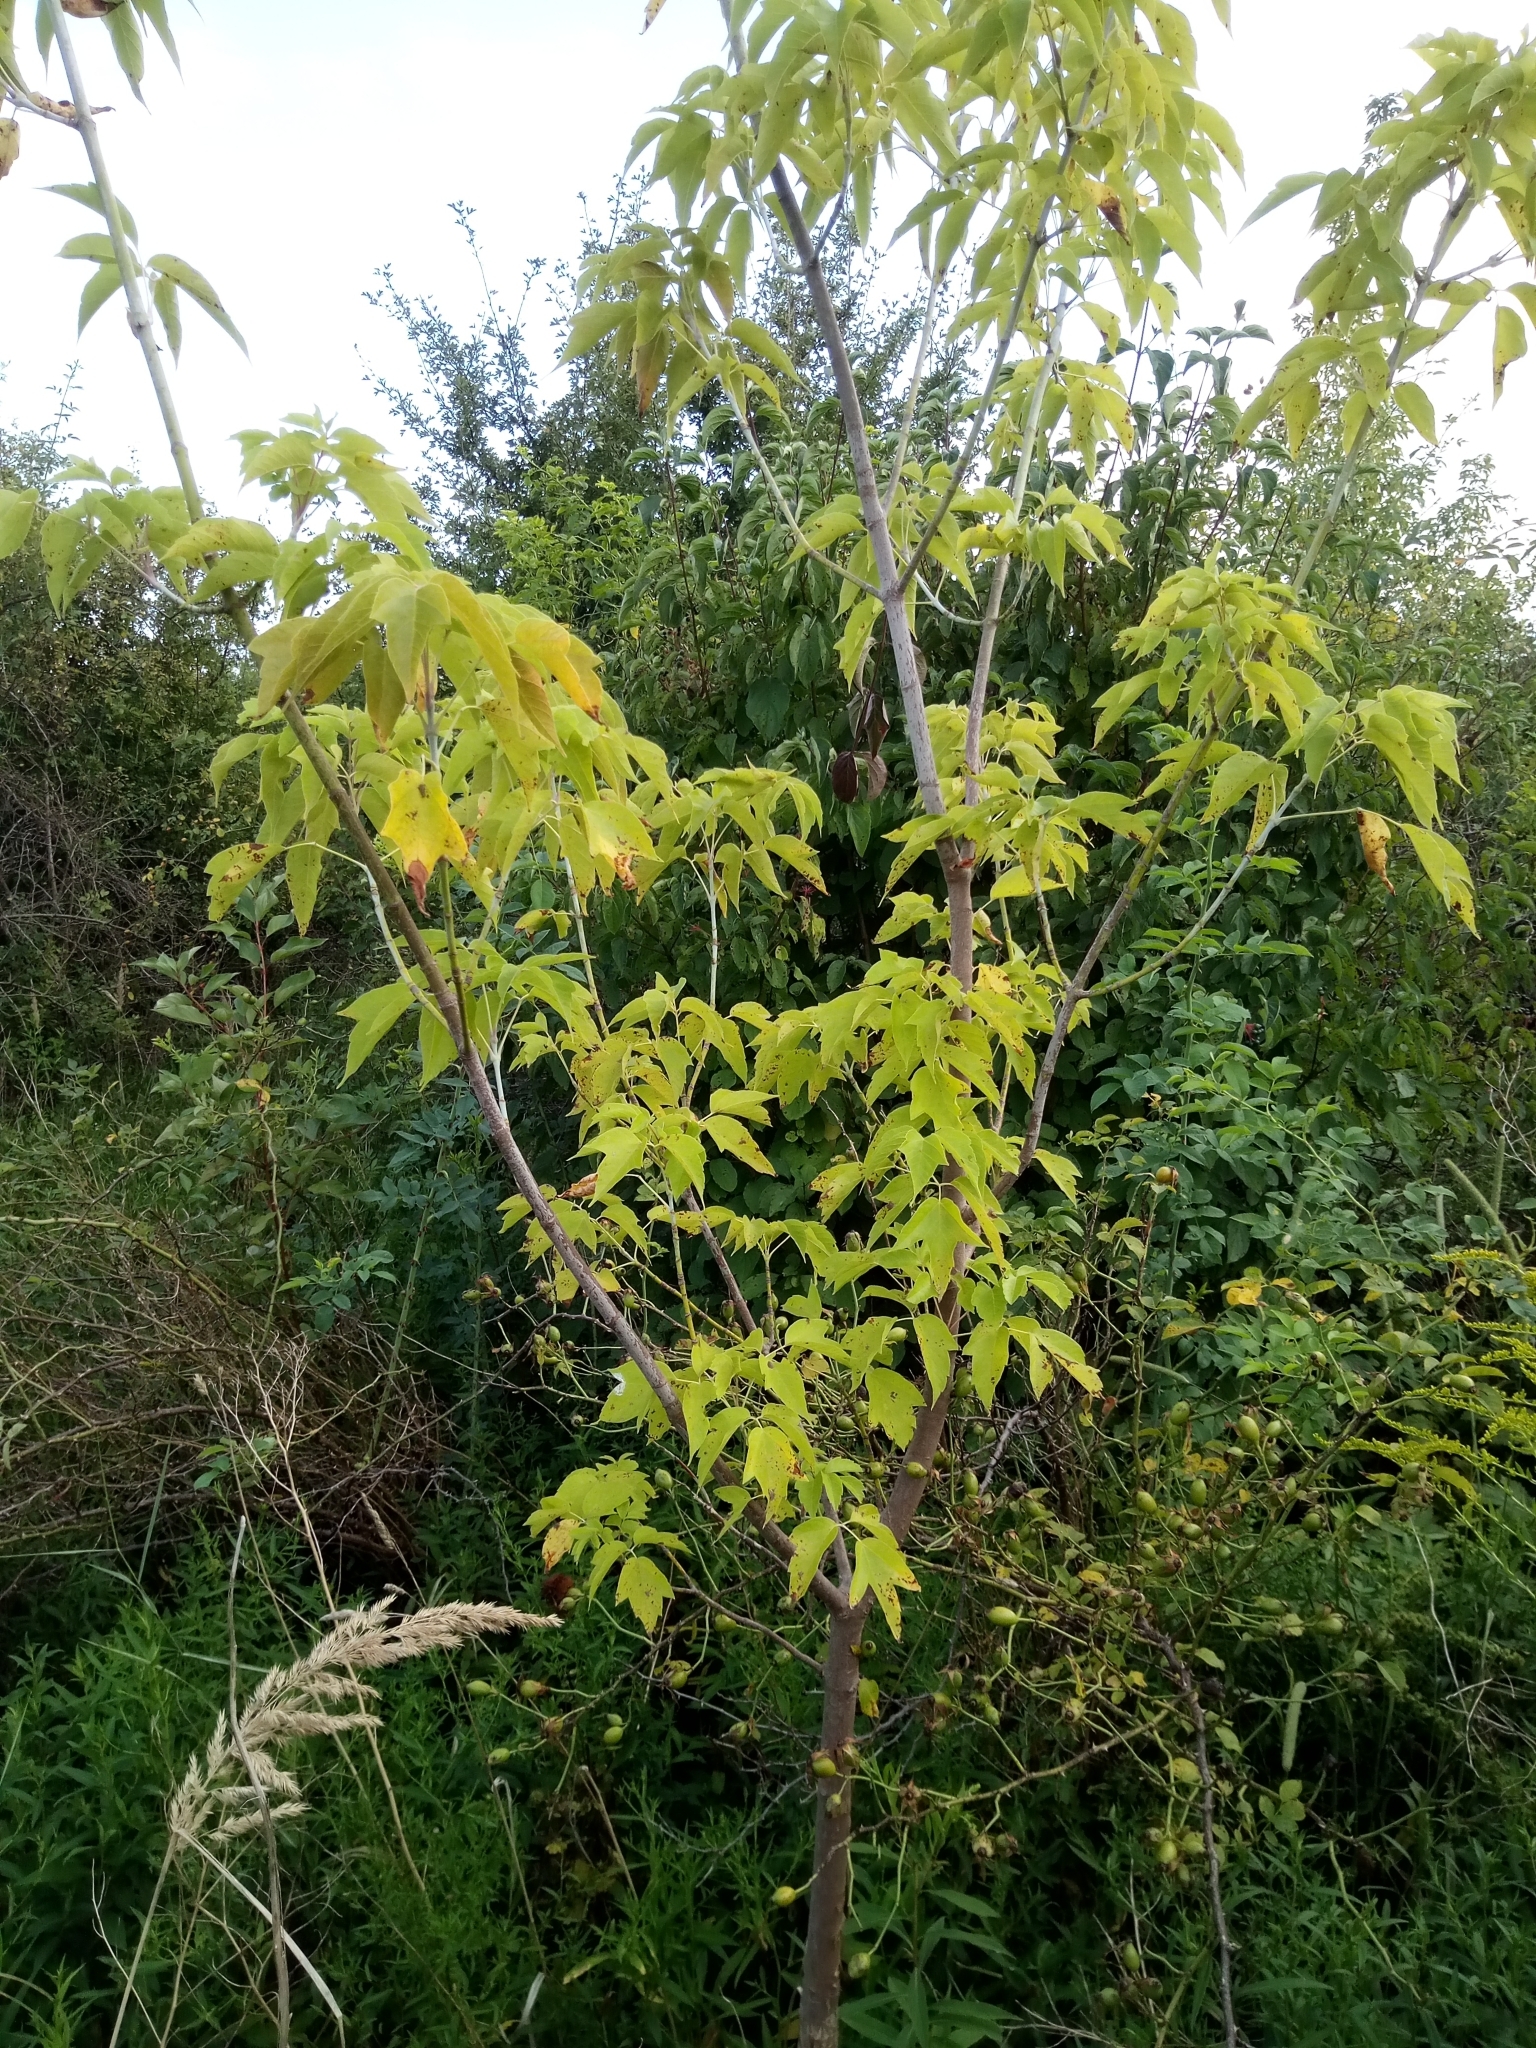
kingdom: Plantae
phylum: Tracheophyta
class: Magnoliopsida
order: Sapindales
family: Sapindaceae
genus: Acer
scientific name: Acer negundo
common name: Ashleaf maple
